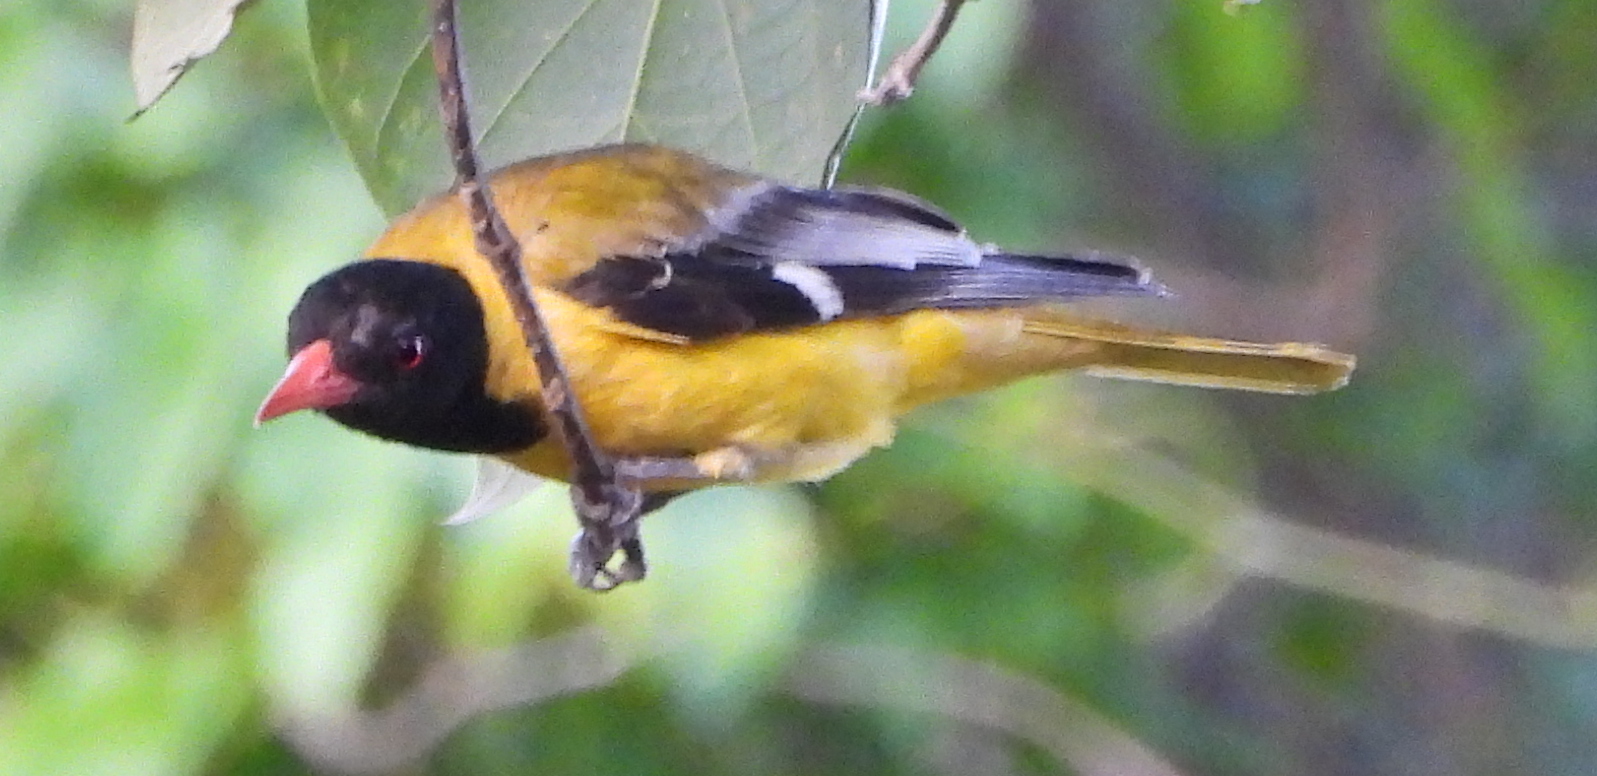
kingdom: Animalia
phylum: Chordata
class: Aves
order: Passeriformes
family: Oriolidae
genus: Oriolus
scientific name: Oriolus larvatus
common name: Black-headed oriole
